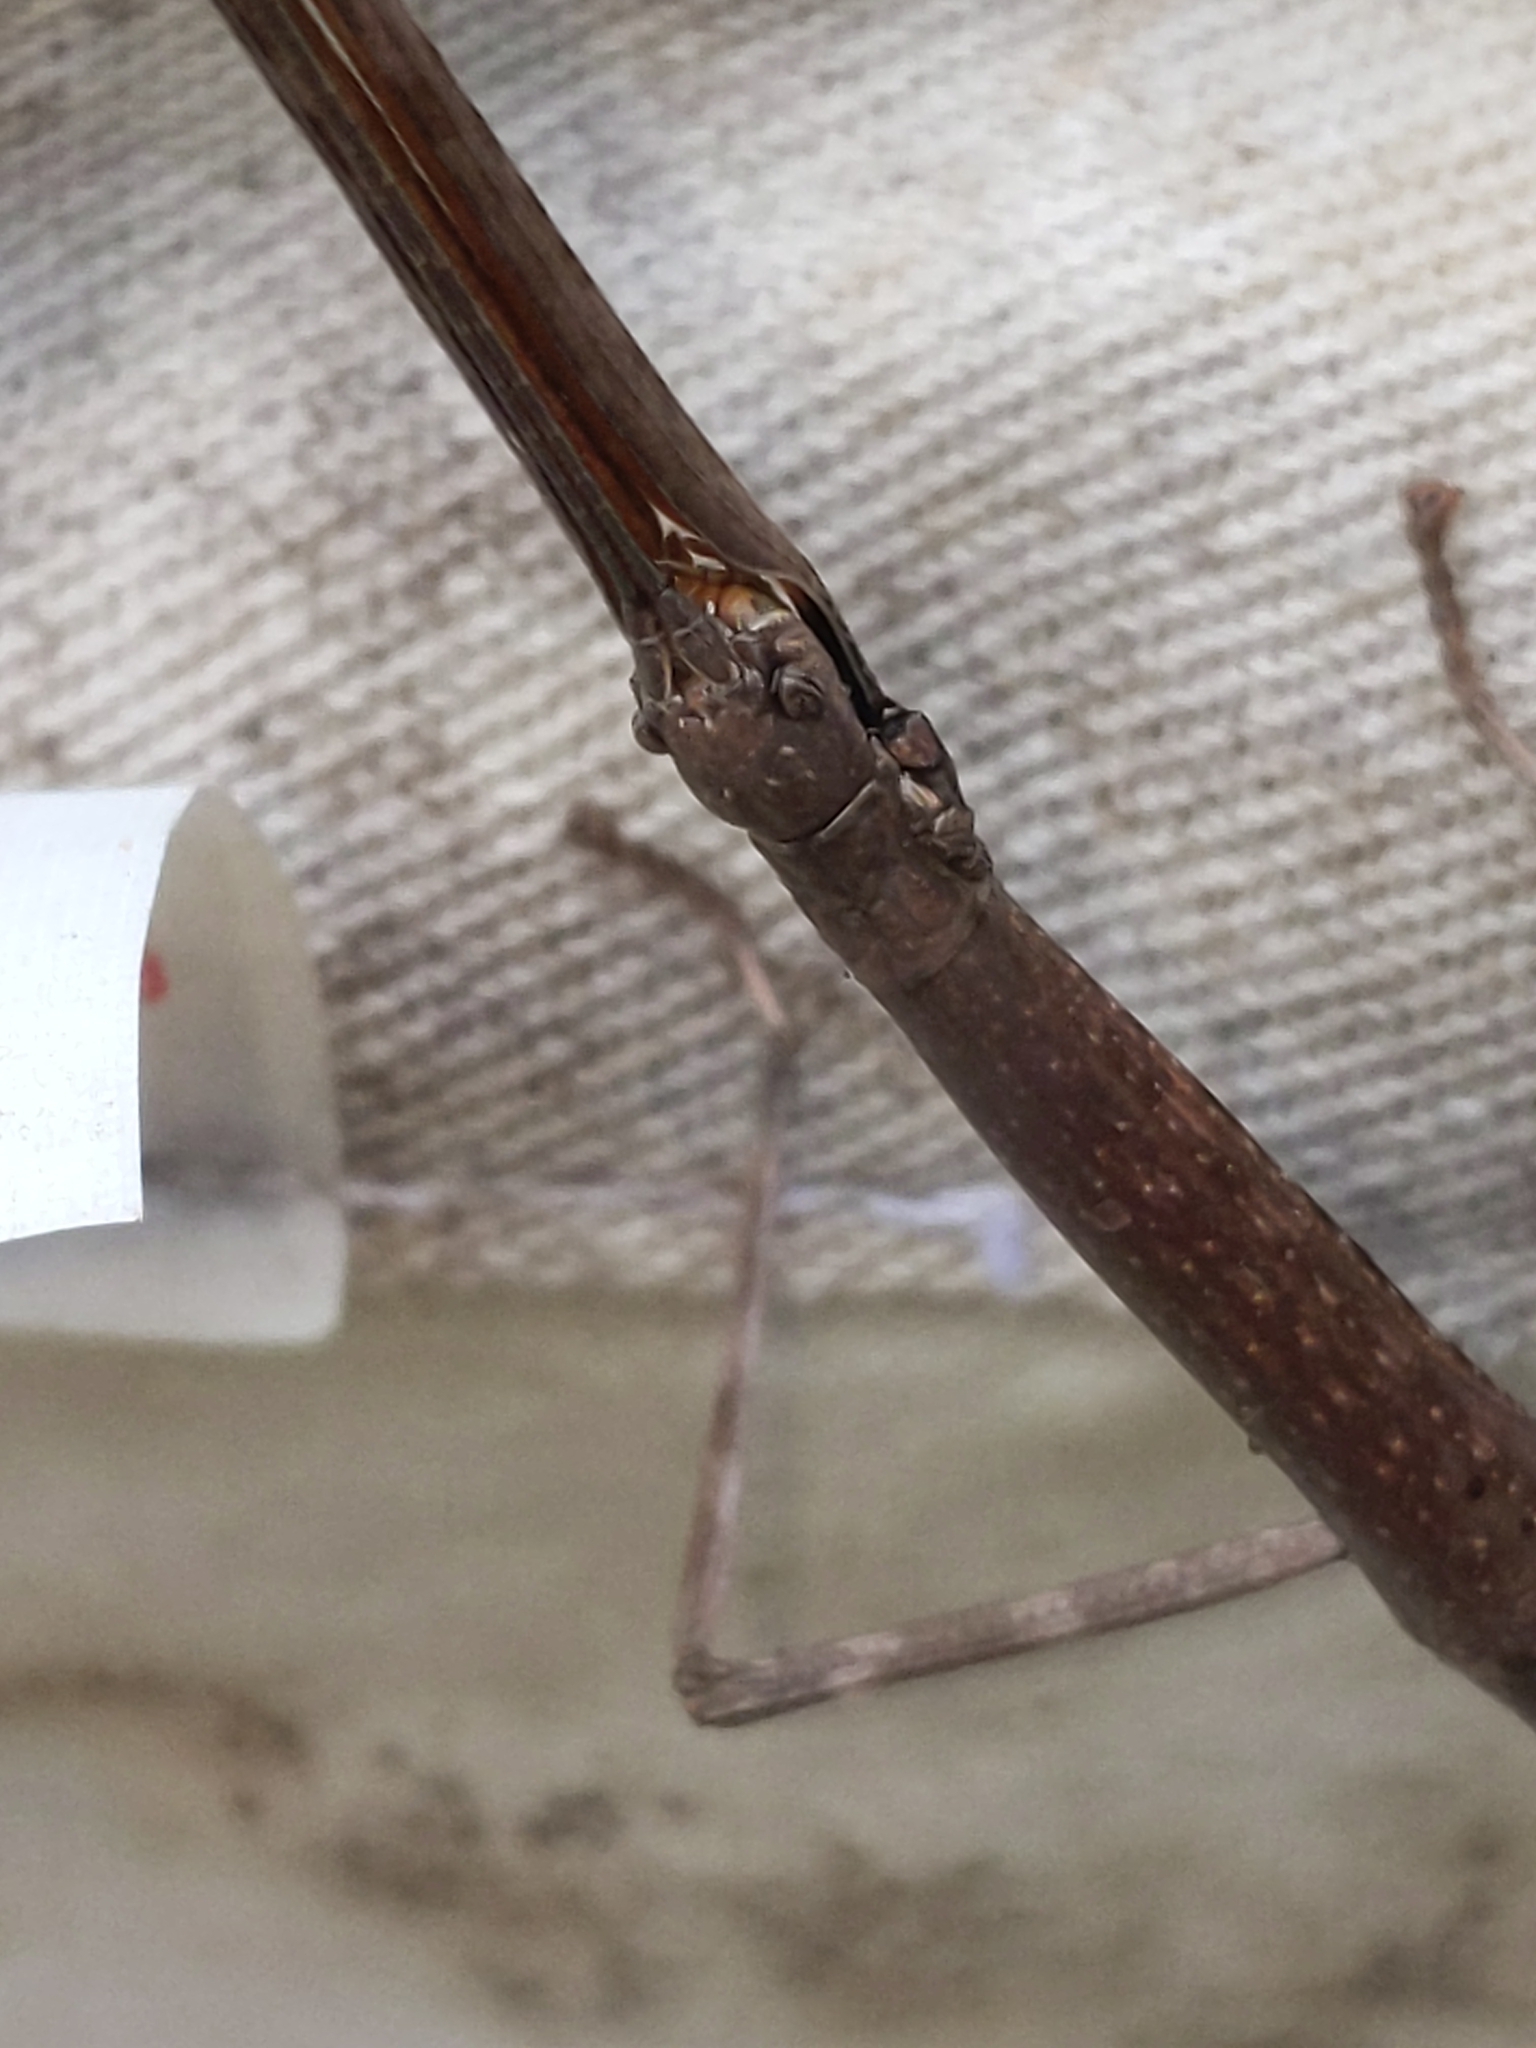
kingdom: Animalia
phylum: Arthropoda
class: Insecta
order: Phasmida
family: Diapheromeridae
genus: Diapheromera
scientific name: Diapheromera femorata
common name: Common american walkingstick
